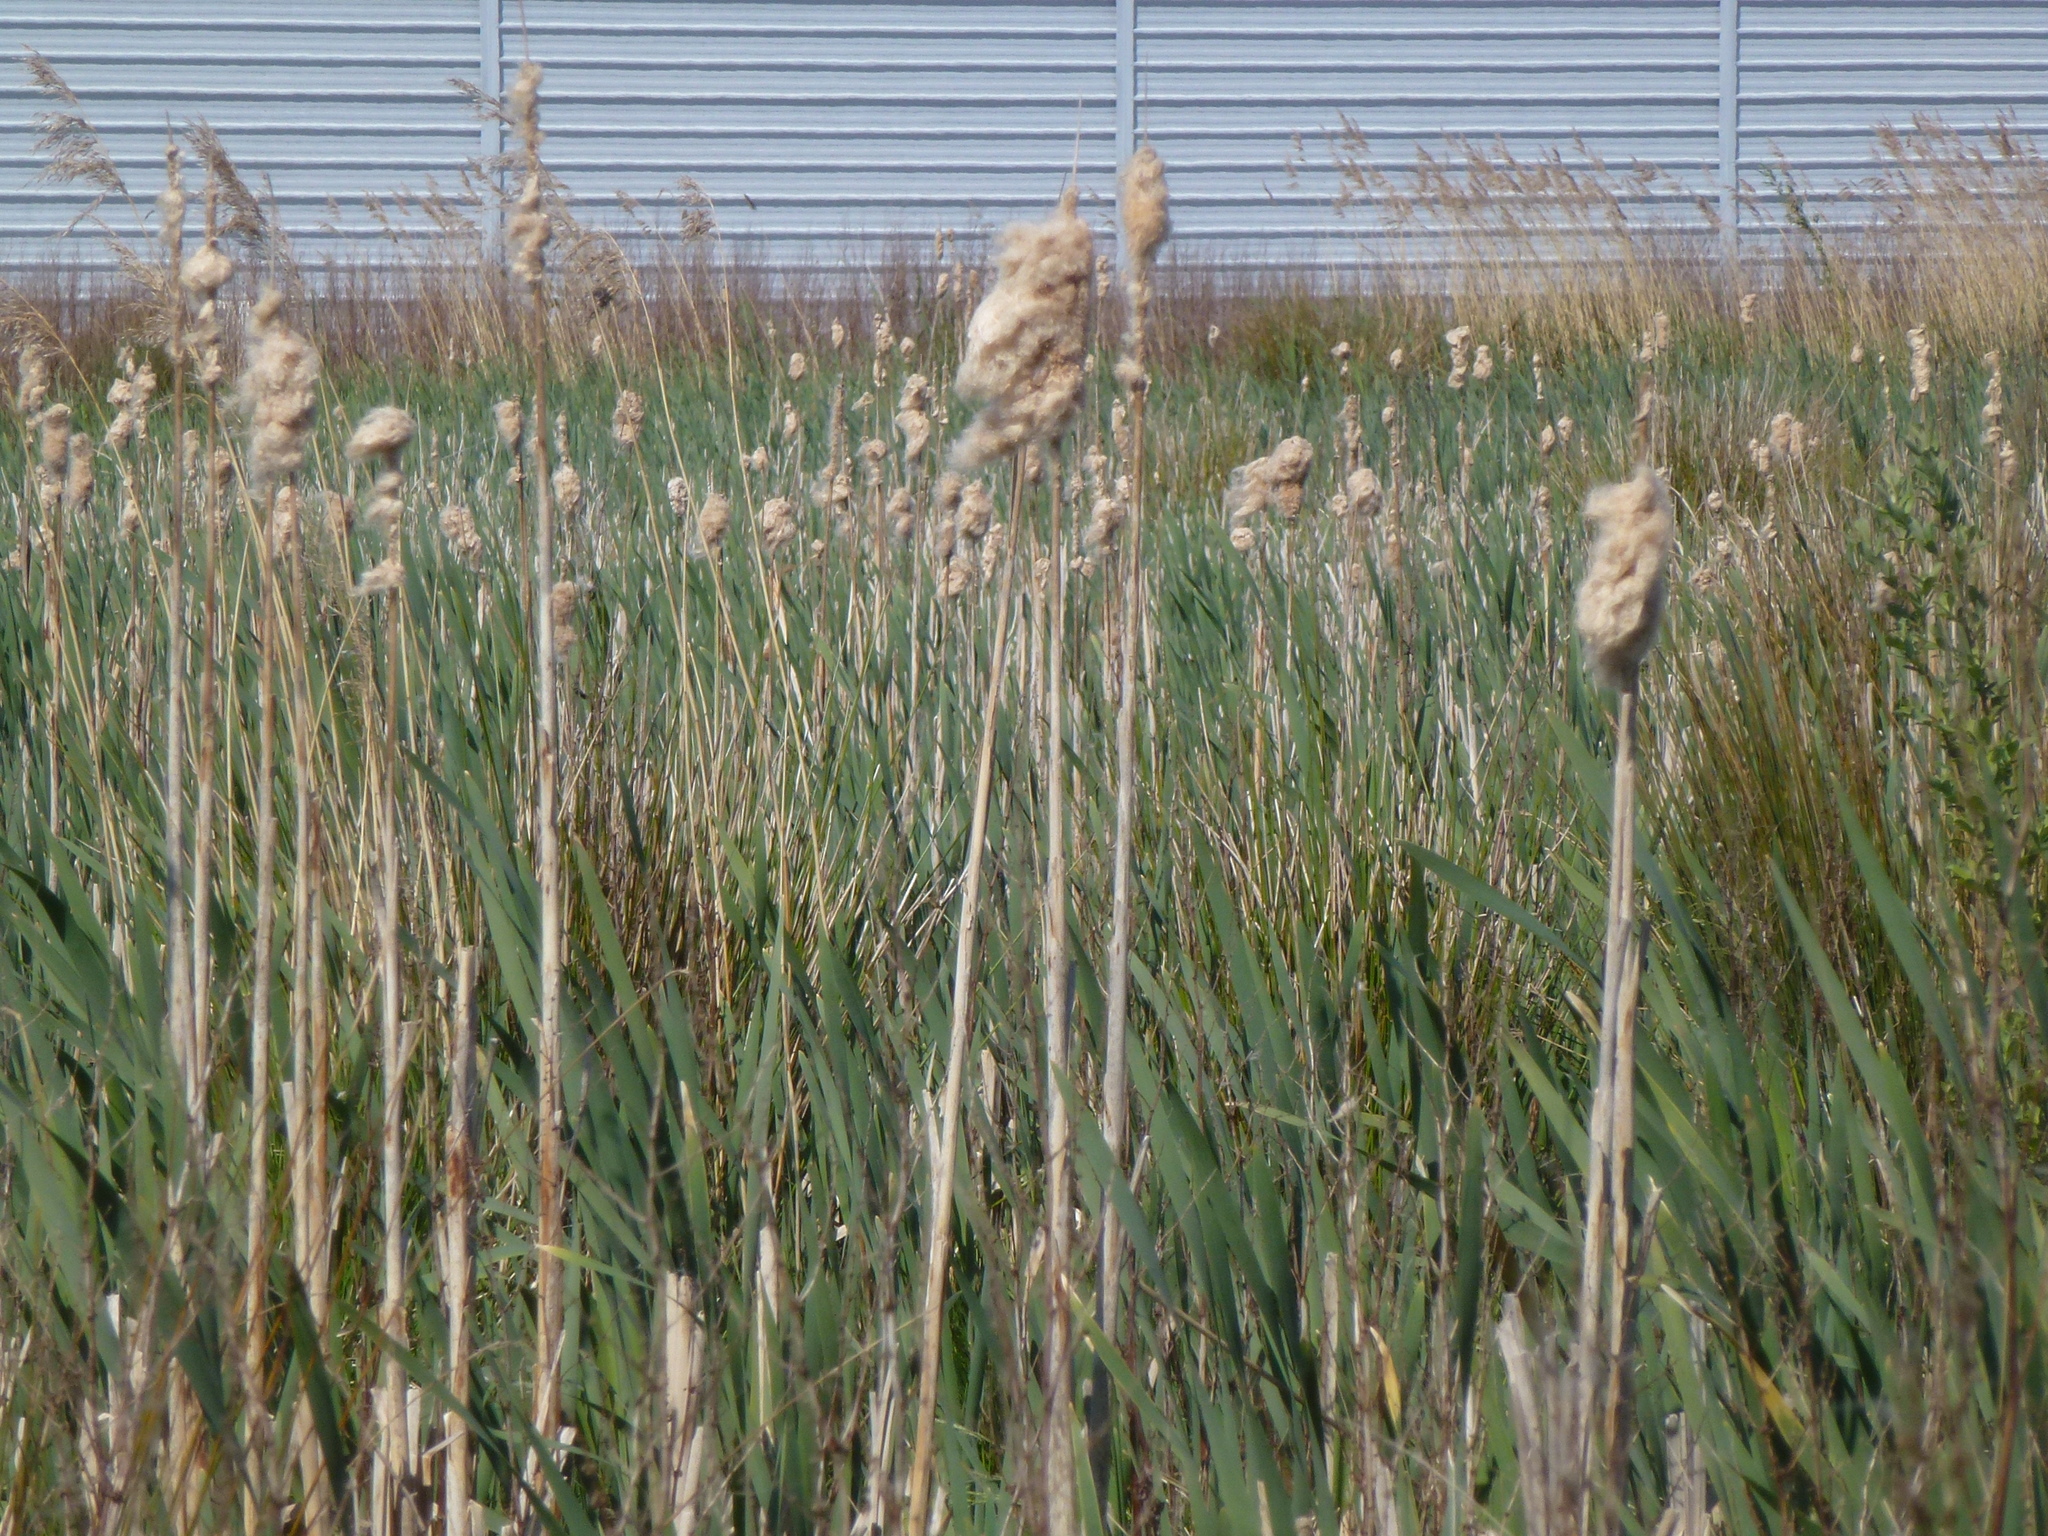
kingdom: Plantae
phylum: Tracheophyta
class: Liliopsida
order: Poales
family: Typhaceae
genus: Typha
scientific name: Typha latifolia
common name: Broadleaf cattail
